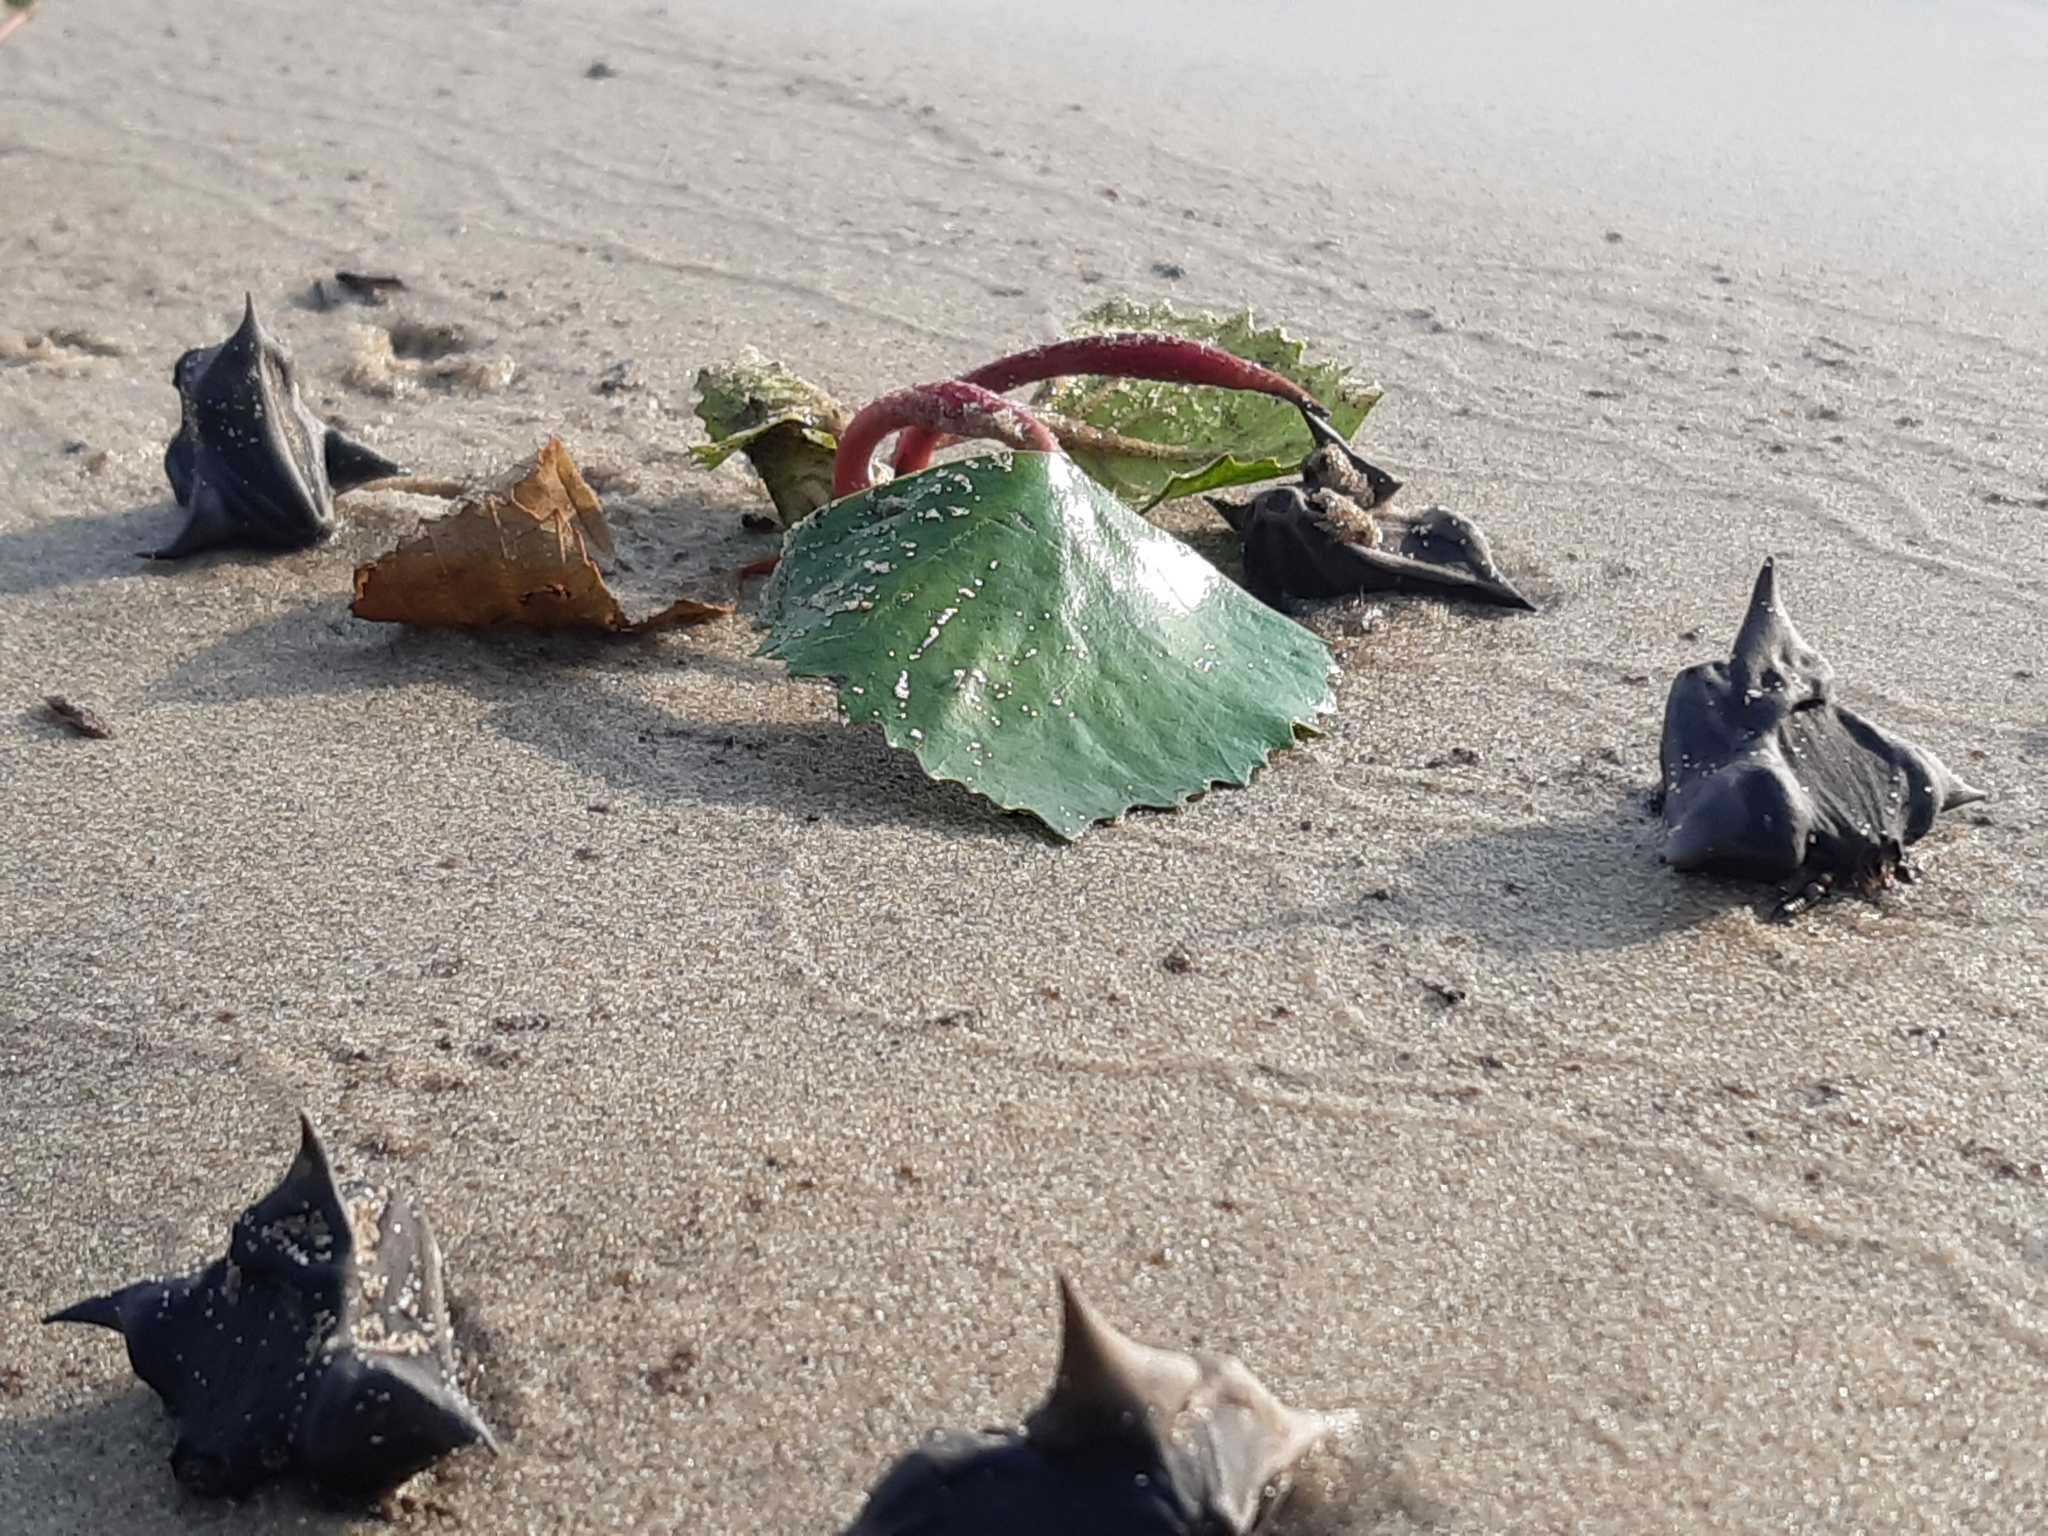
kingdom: Plantae
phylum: Tracheophyta
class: Magnoliopsida
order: Myrtales
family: Lythraceae
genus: Trapa
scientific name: Trapa natans
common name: Water chestnut
